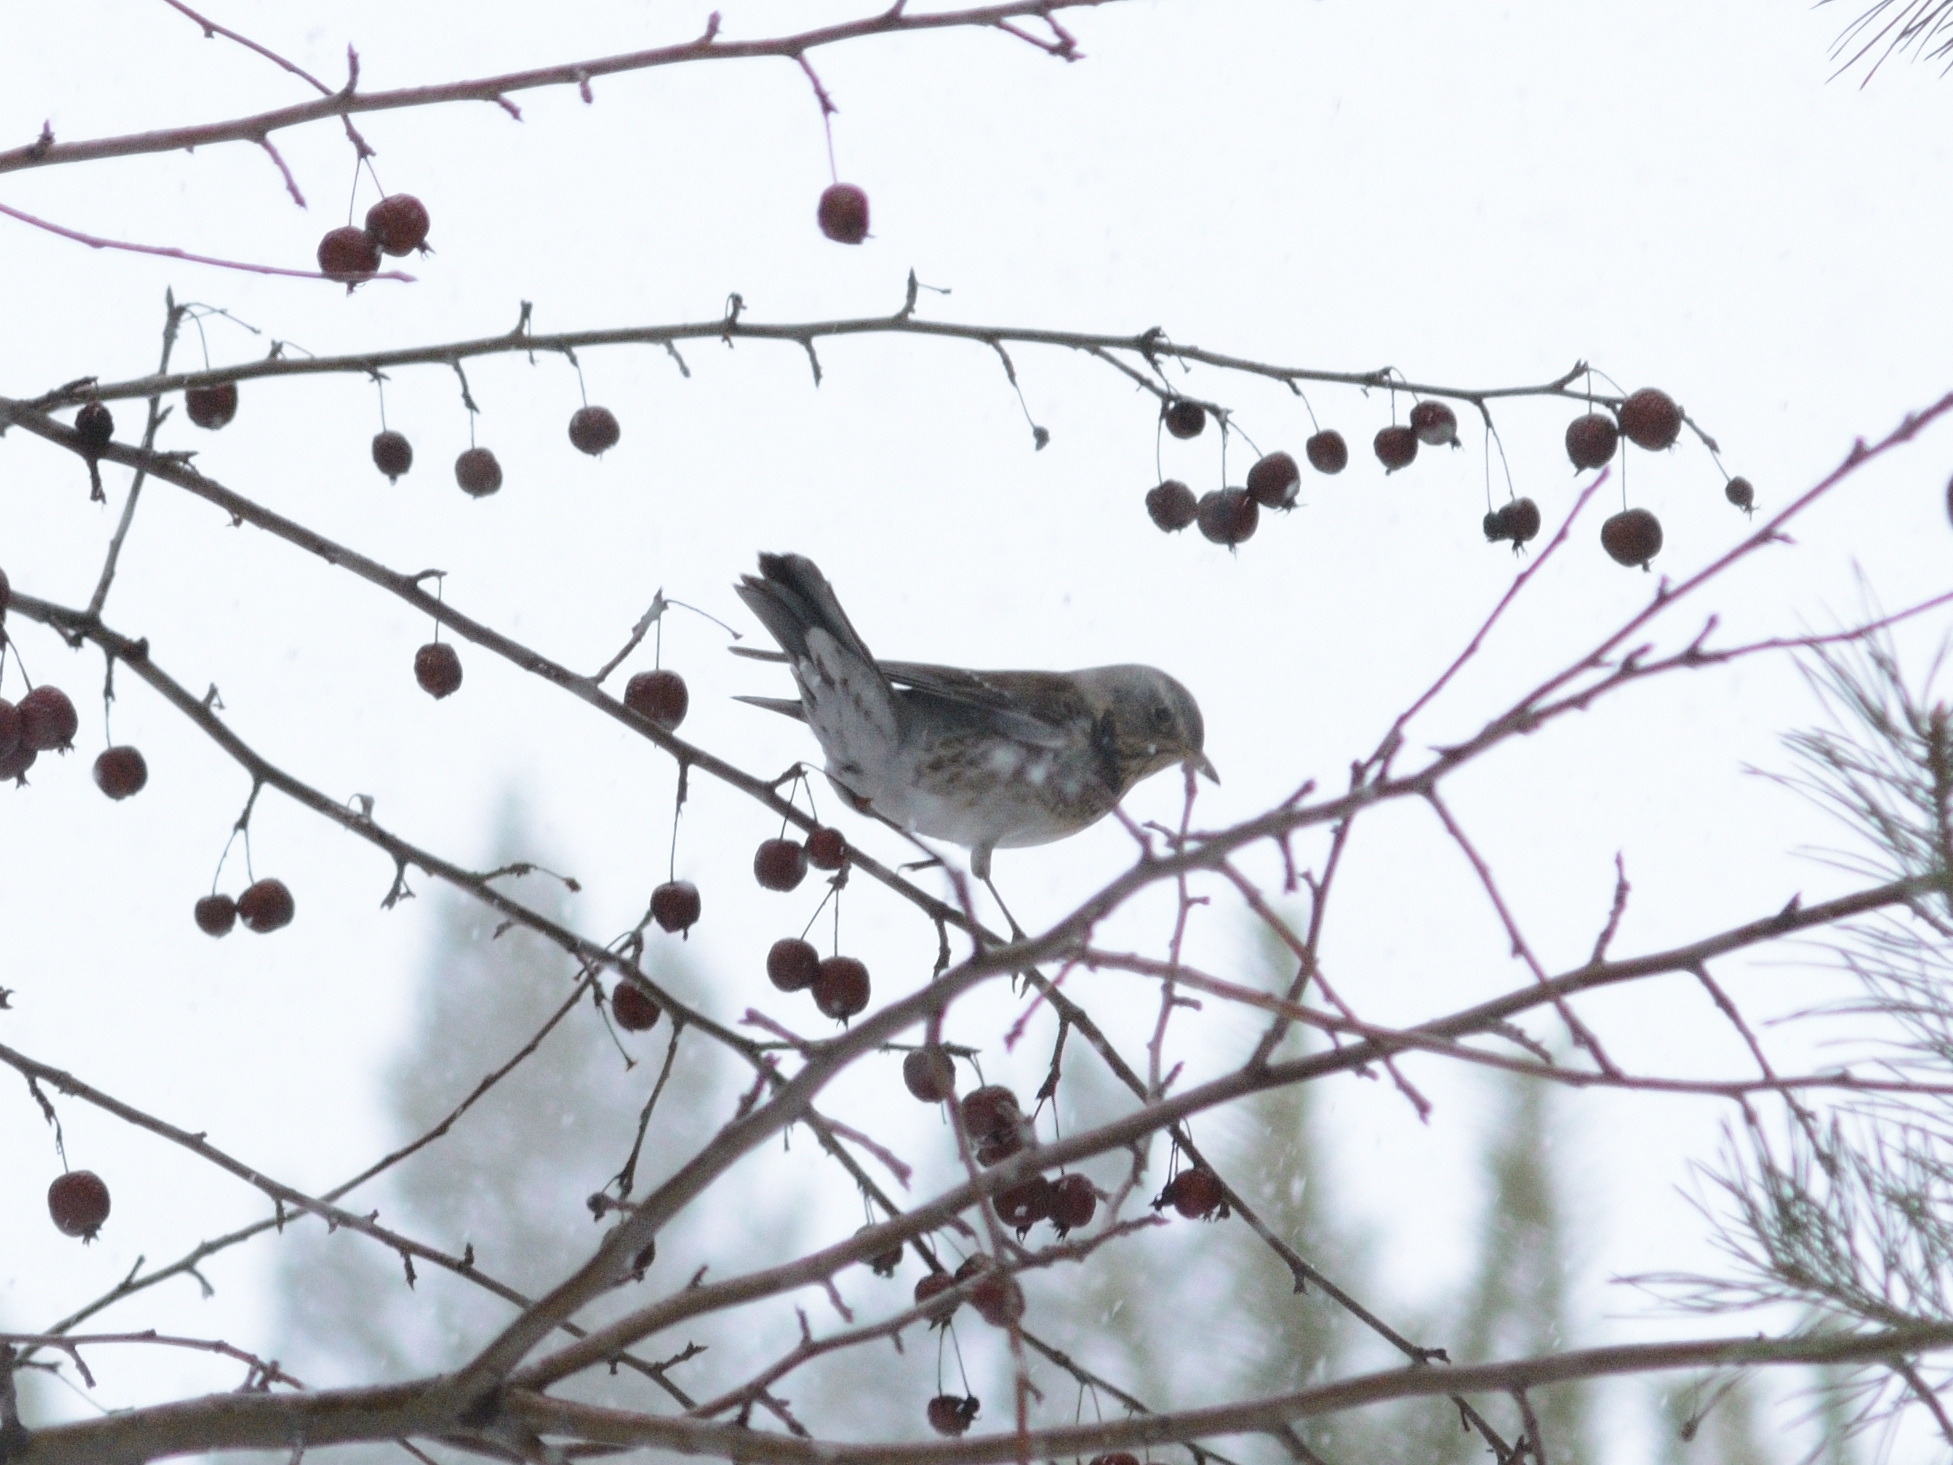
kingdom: Animalia
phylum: Chordata
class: Aves
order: Passeriformes
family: Turdidae
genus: Turdus
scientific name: Turdus pilaris
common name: Fieldfare
